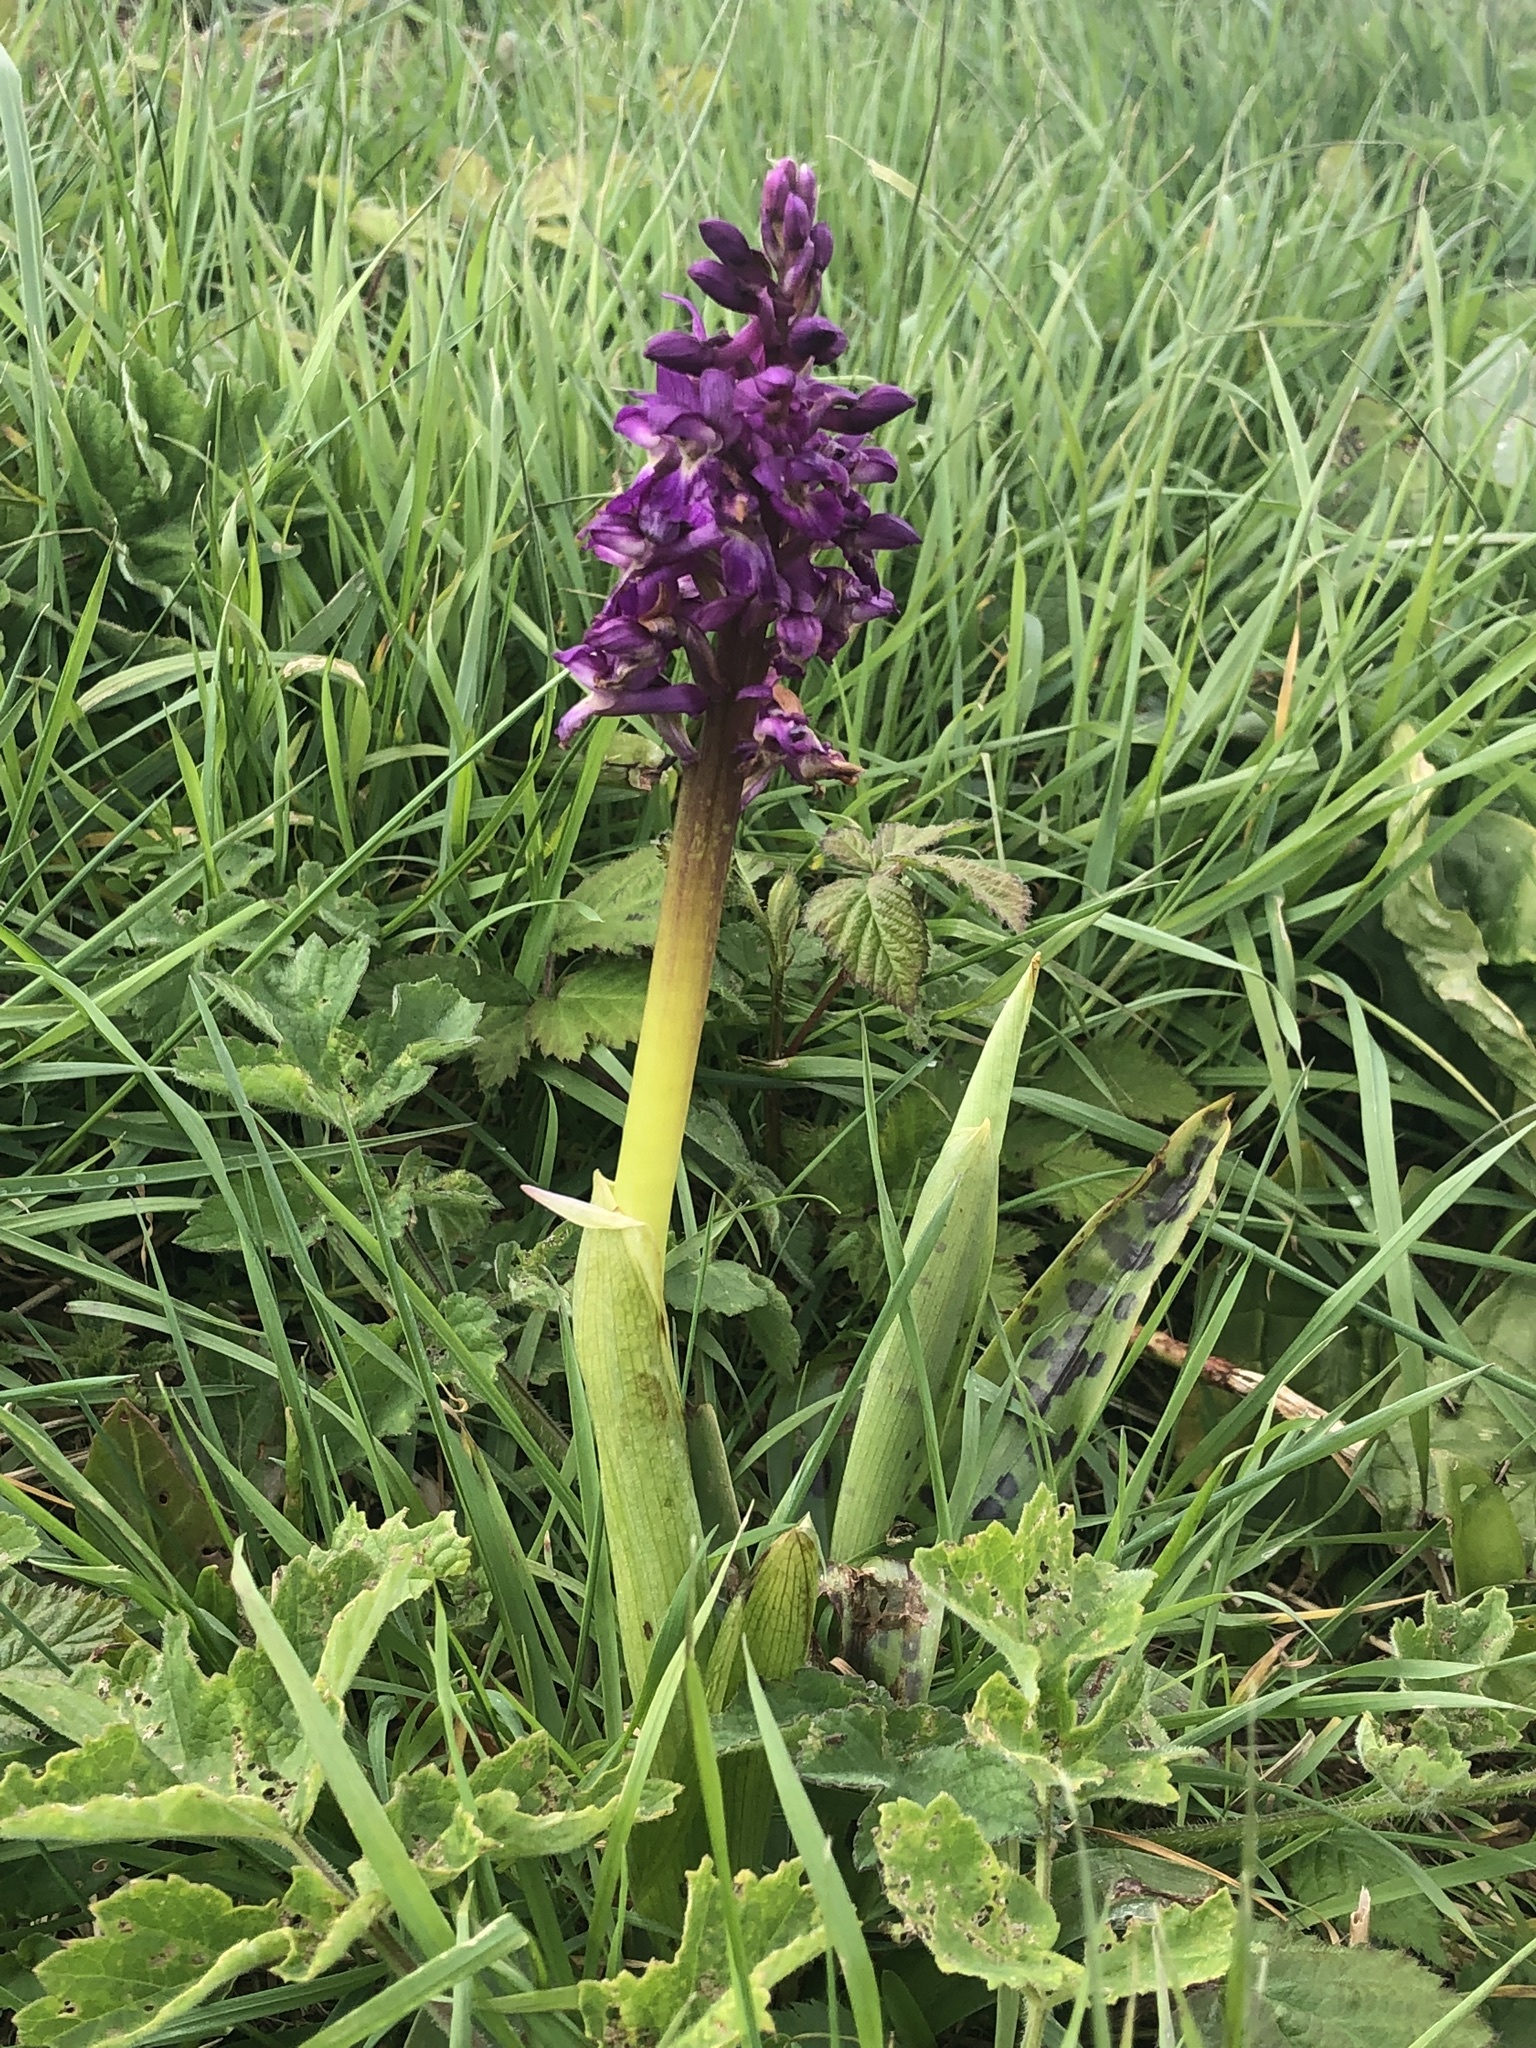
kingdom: Plantae
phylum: Tracheophyta
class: Liliopsida
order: Asparagales
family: Orchidaceae
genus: Orchis
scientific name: Orchis mascula
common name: Early-purple orchid
